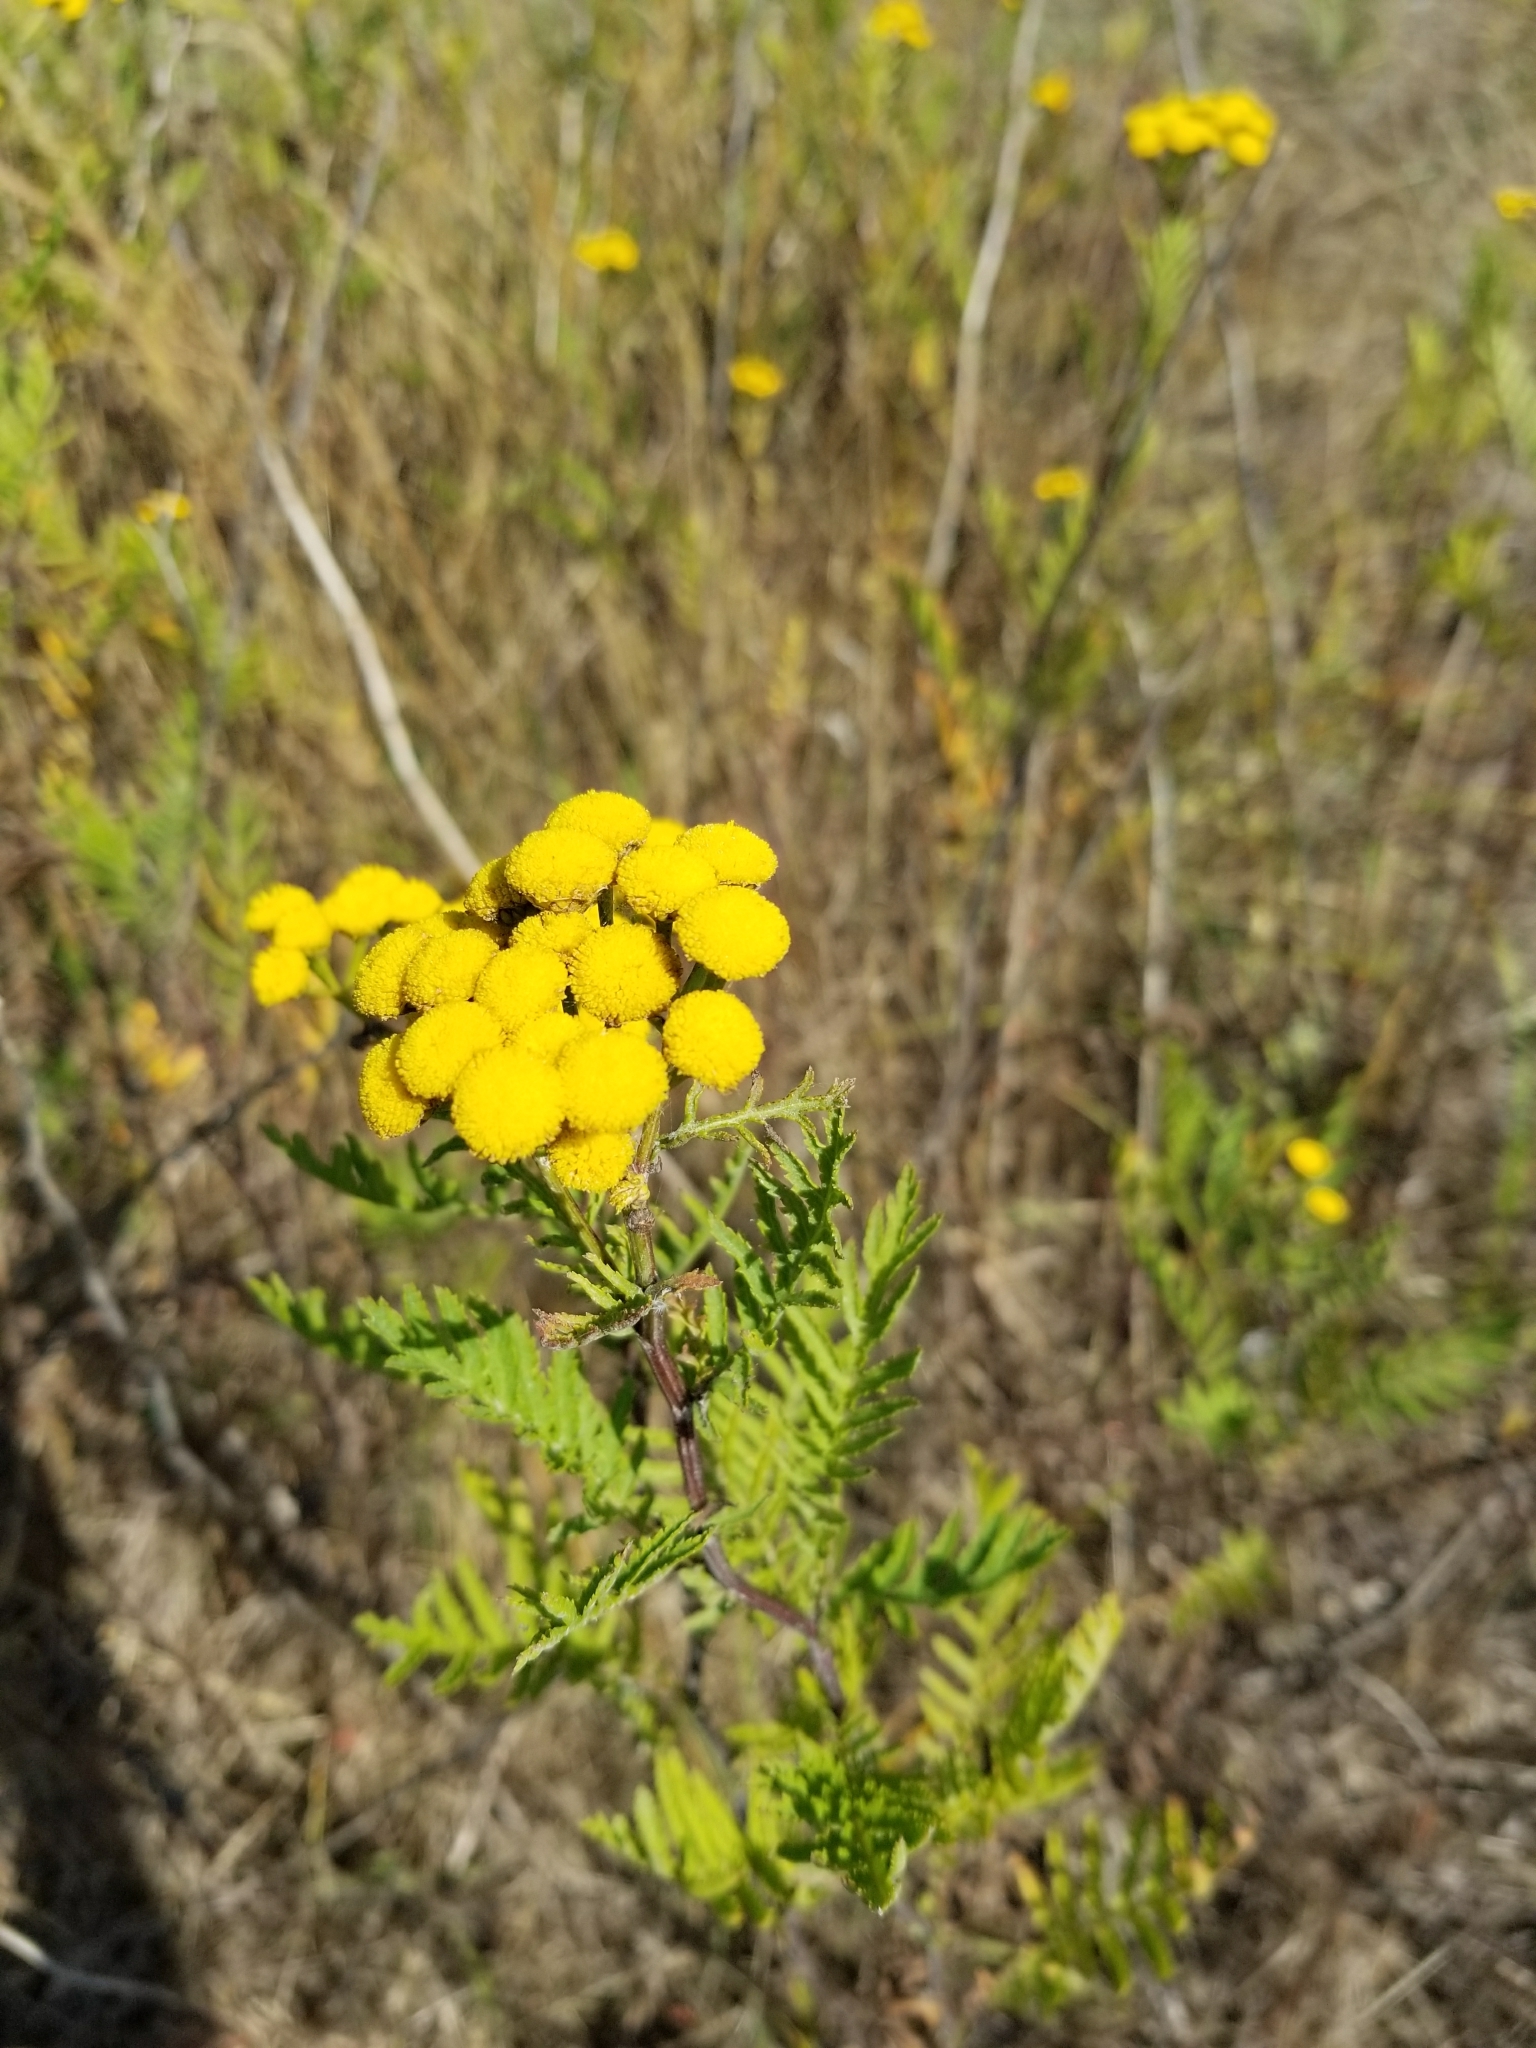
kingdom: Plantae
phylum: Tracheophyta
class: Magnoliopsida
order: Asterales
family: Asteraceae
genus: Tanacetum
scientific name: Tanacetum vulgare
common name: Common tansy
